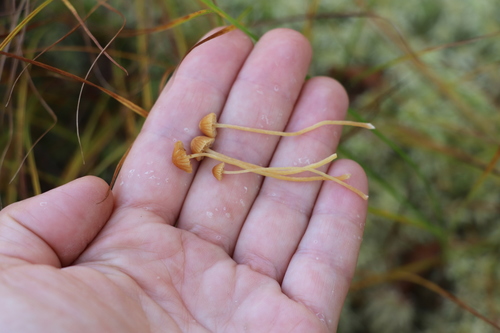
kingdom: Fungi
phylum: Basidiomycota
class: Agaricomycetes
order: Agaricales
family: Hymenogastraceae
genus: Galerina
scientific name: Galerina
